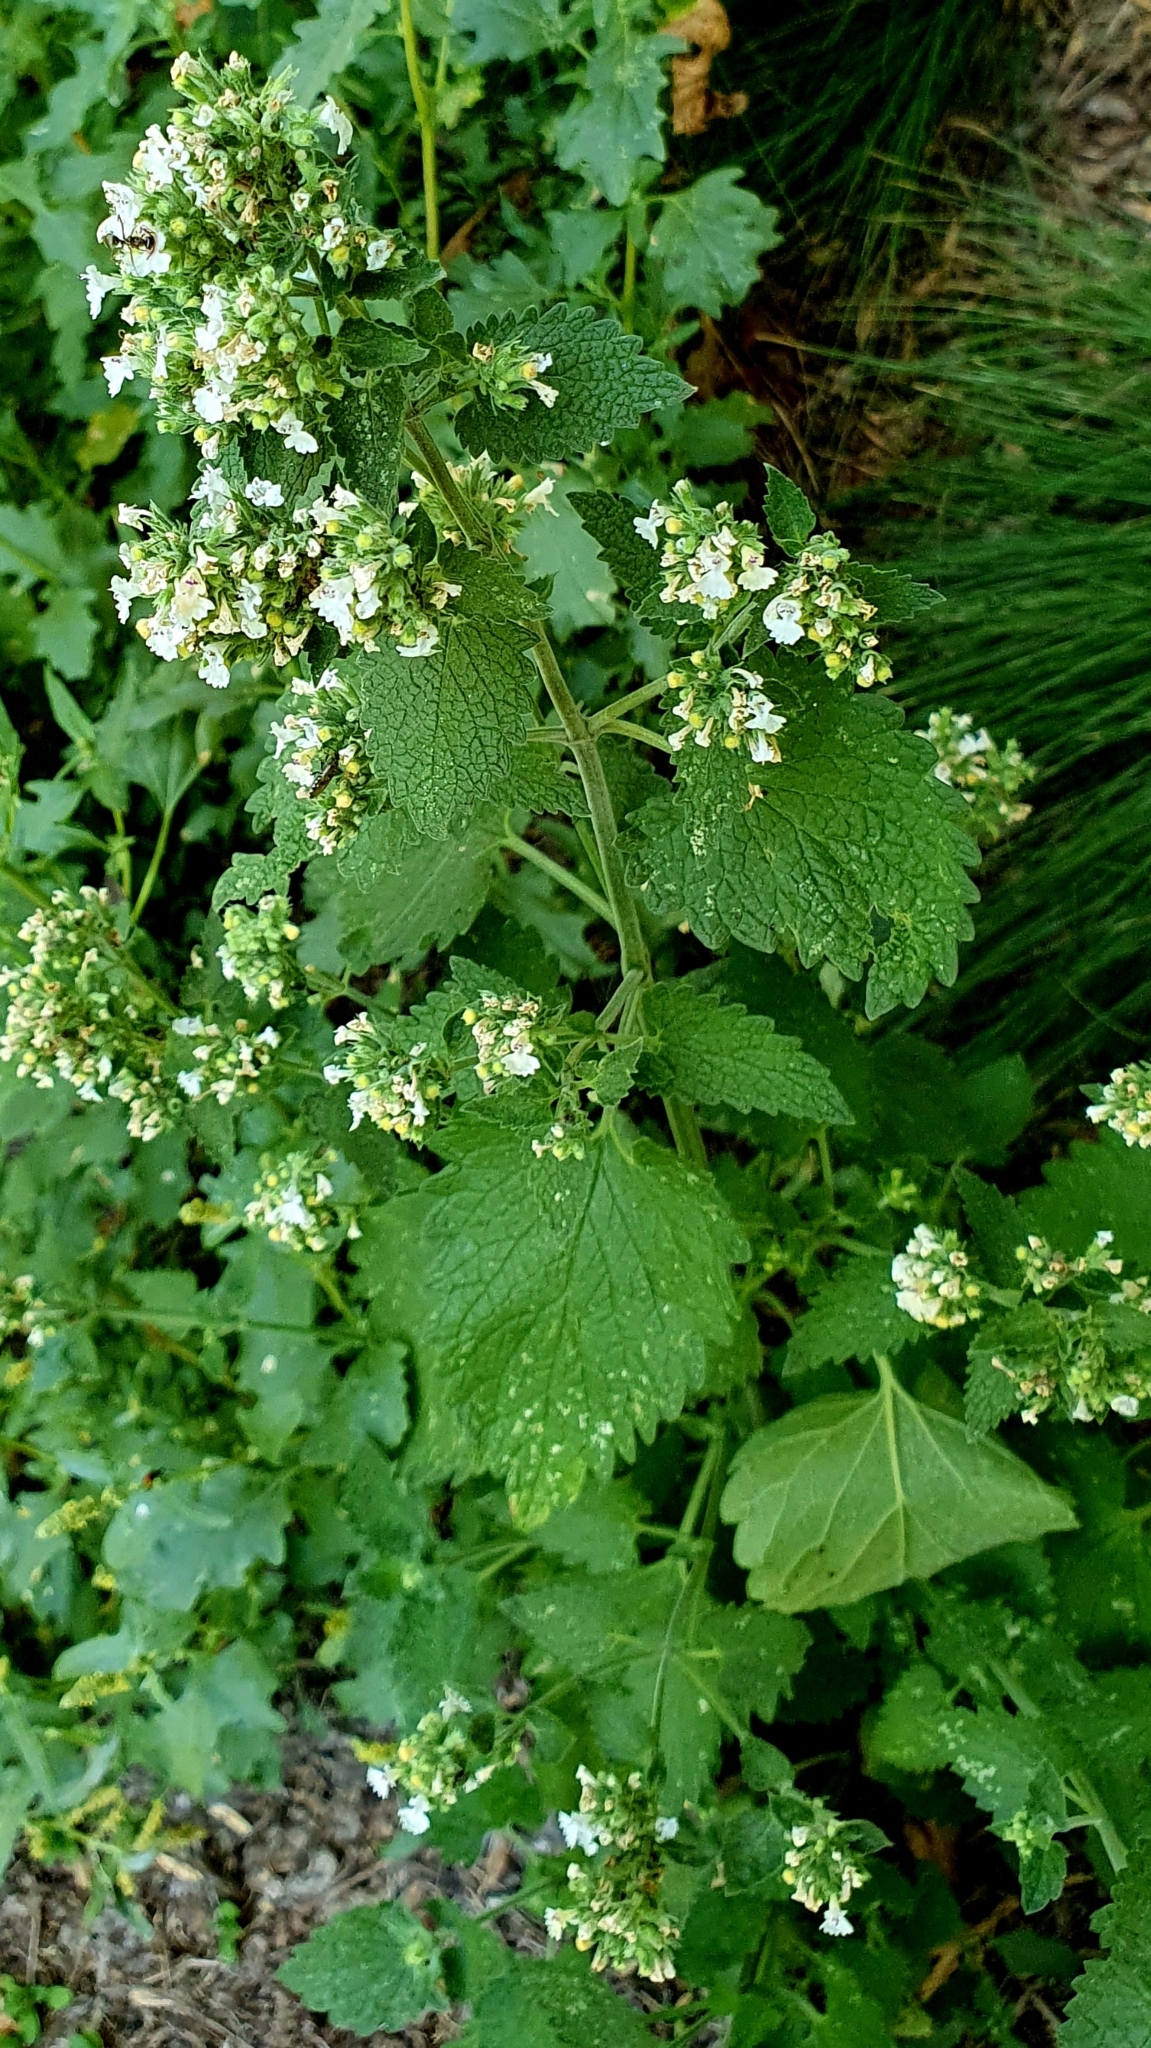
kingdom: Plantae
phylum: Tracheophyta
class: Magnoliopsida
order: Lamiales
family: Lamiaceae
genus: Nepeta
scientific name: Nepeta cataria
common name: Catnip
